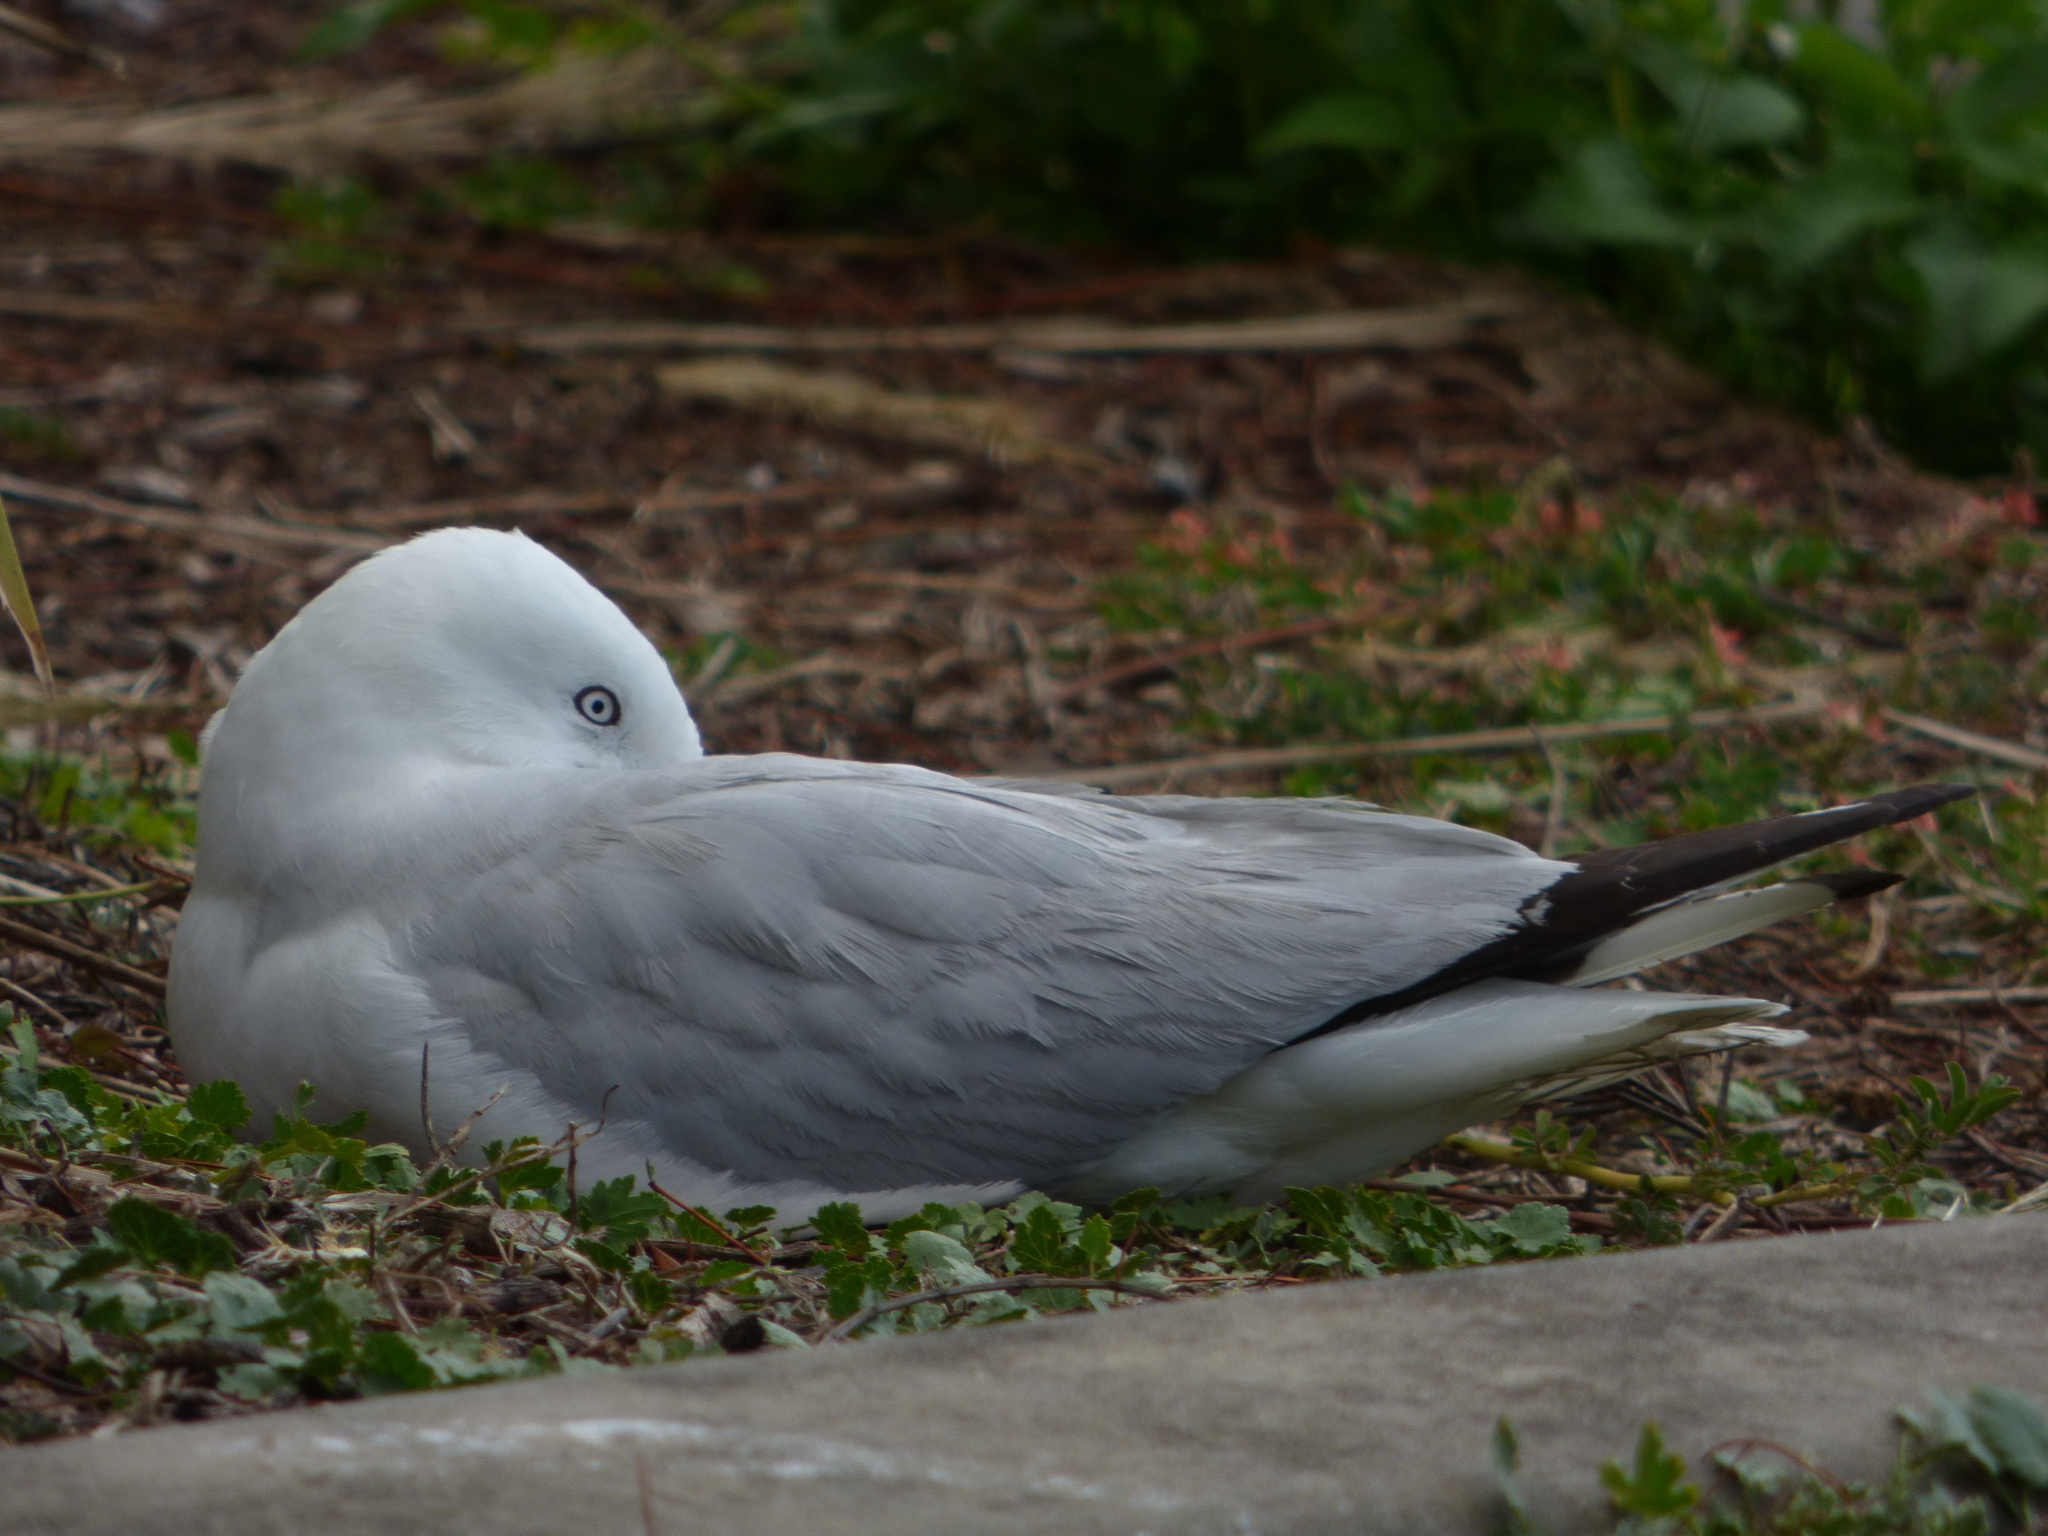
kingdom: Animalia
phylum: Chordata
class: Aves
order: Charadriiformes
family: Laridae
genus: Chroicocephalus
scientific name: Chroicocephalus novaehollandiae
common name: Silver gull
